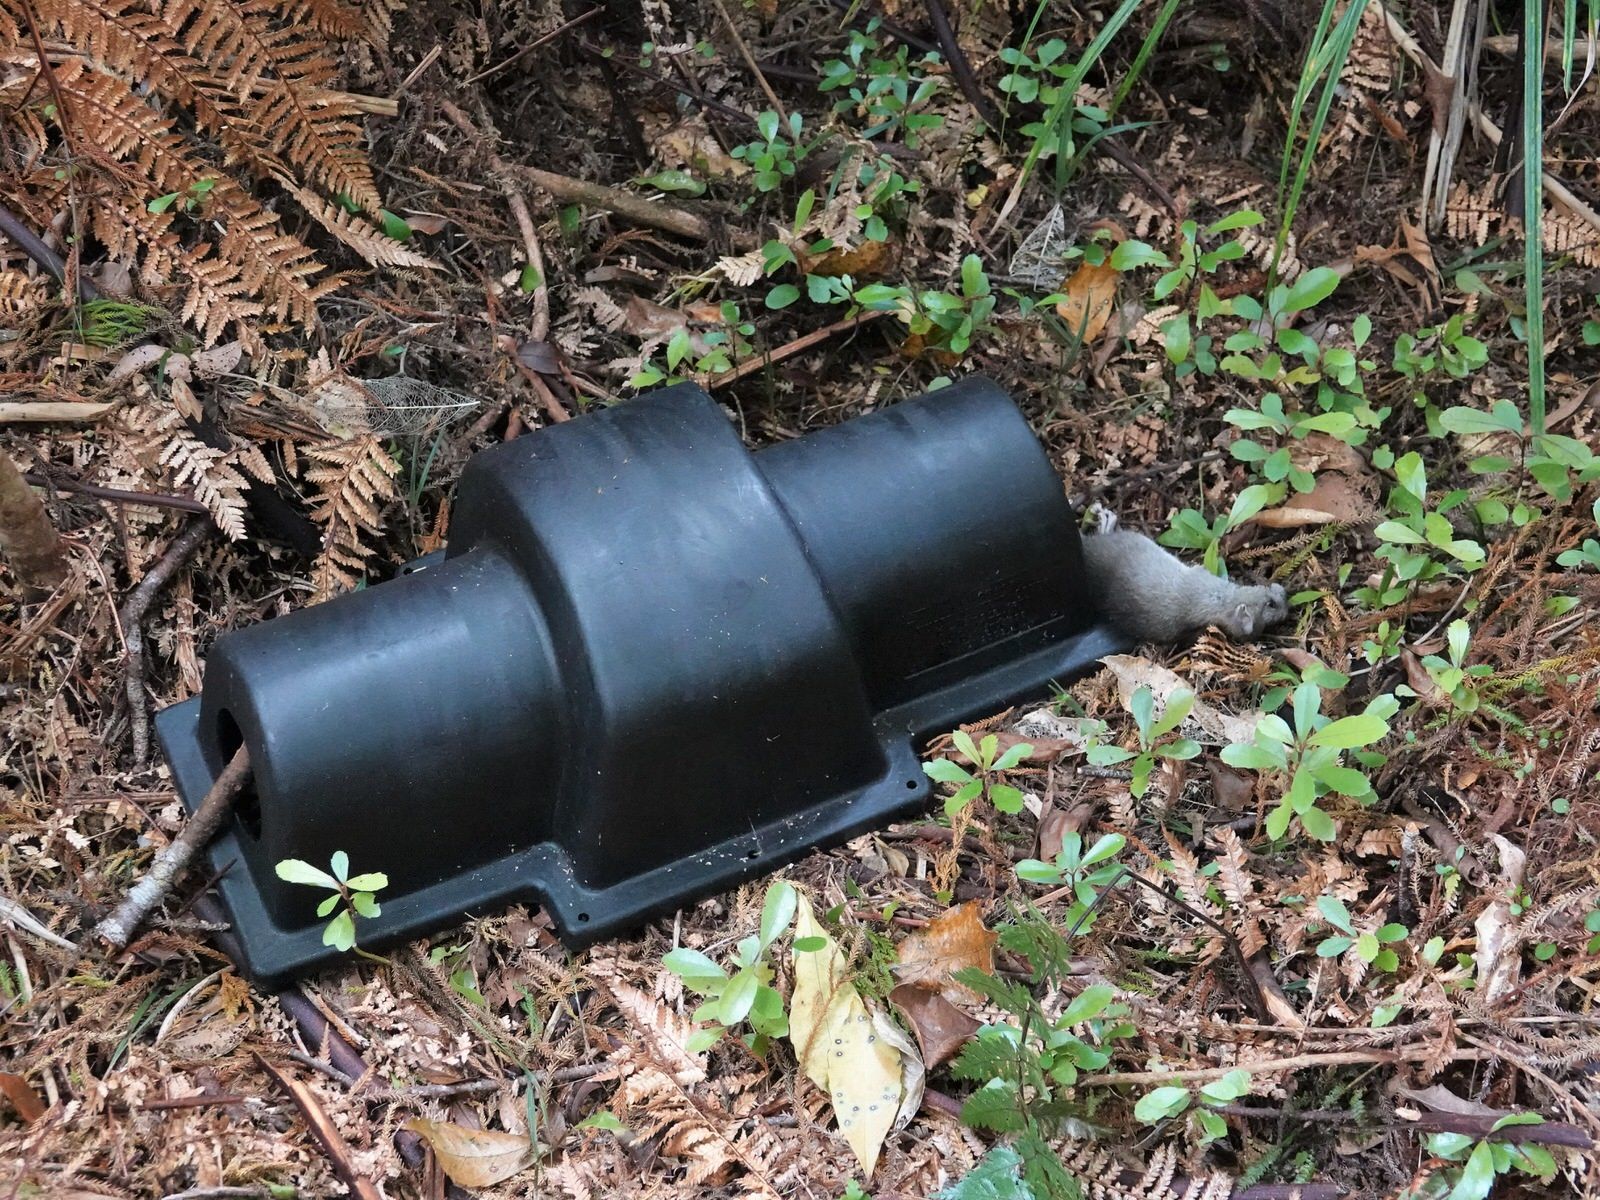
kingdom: Animalia
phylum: Chordata
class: Mammalia
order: Rodentia
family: Muridae
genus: Rattus
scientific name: Rattus rattus
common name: Black rat
